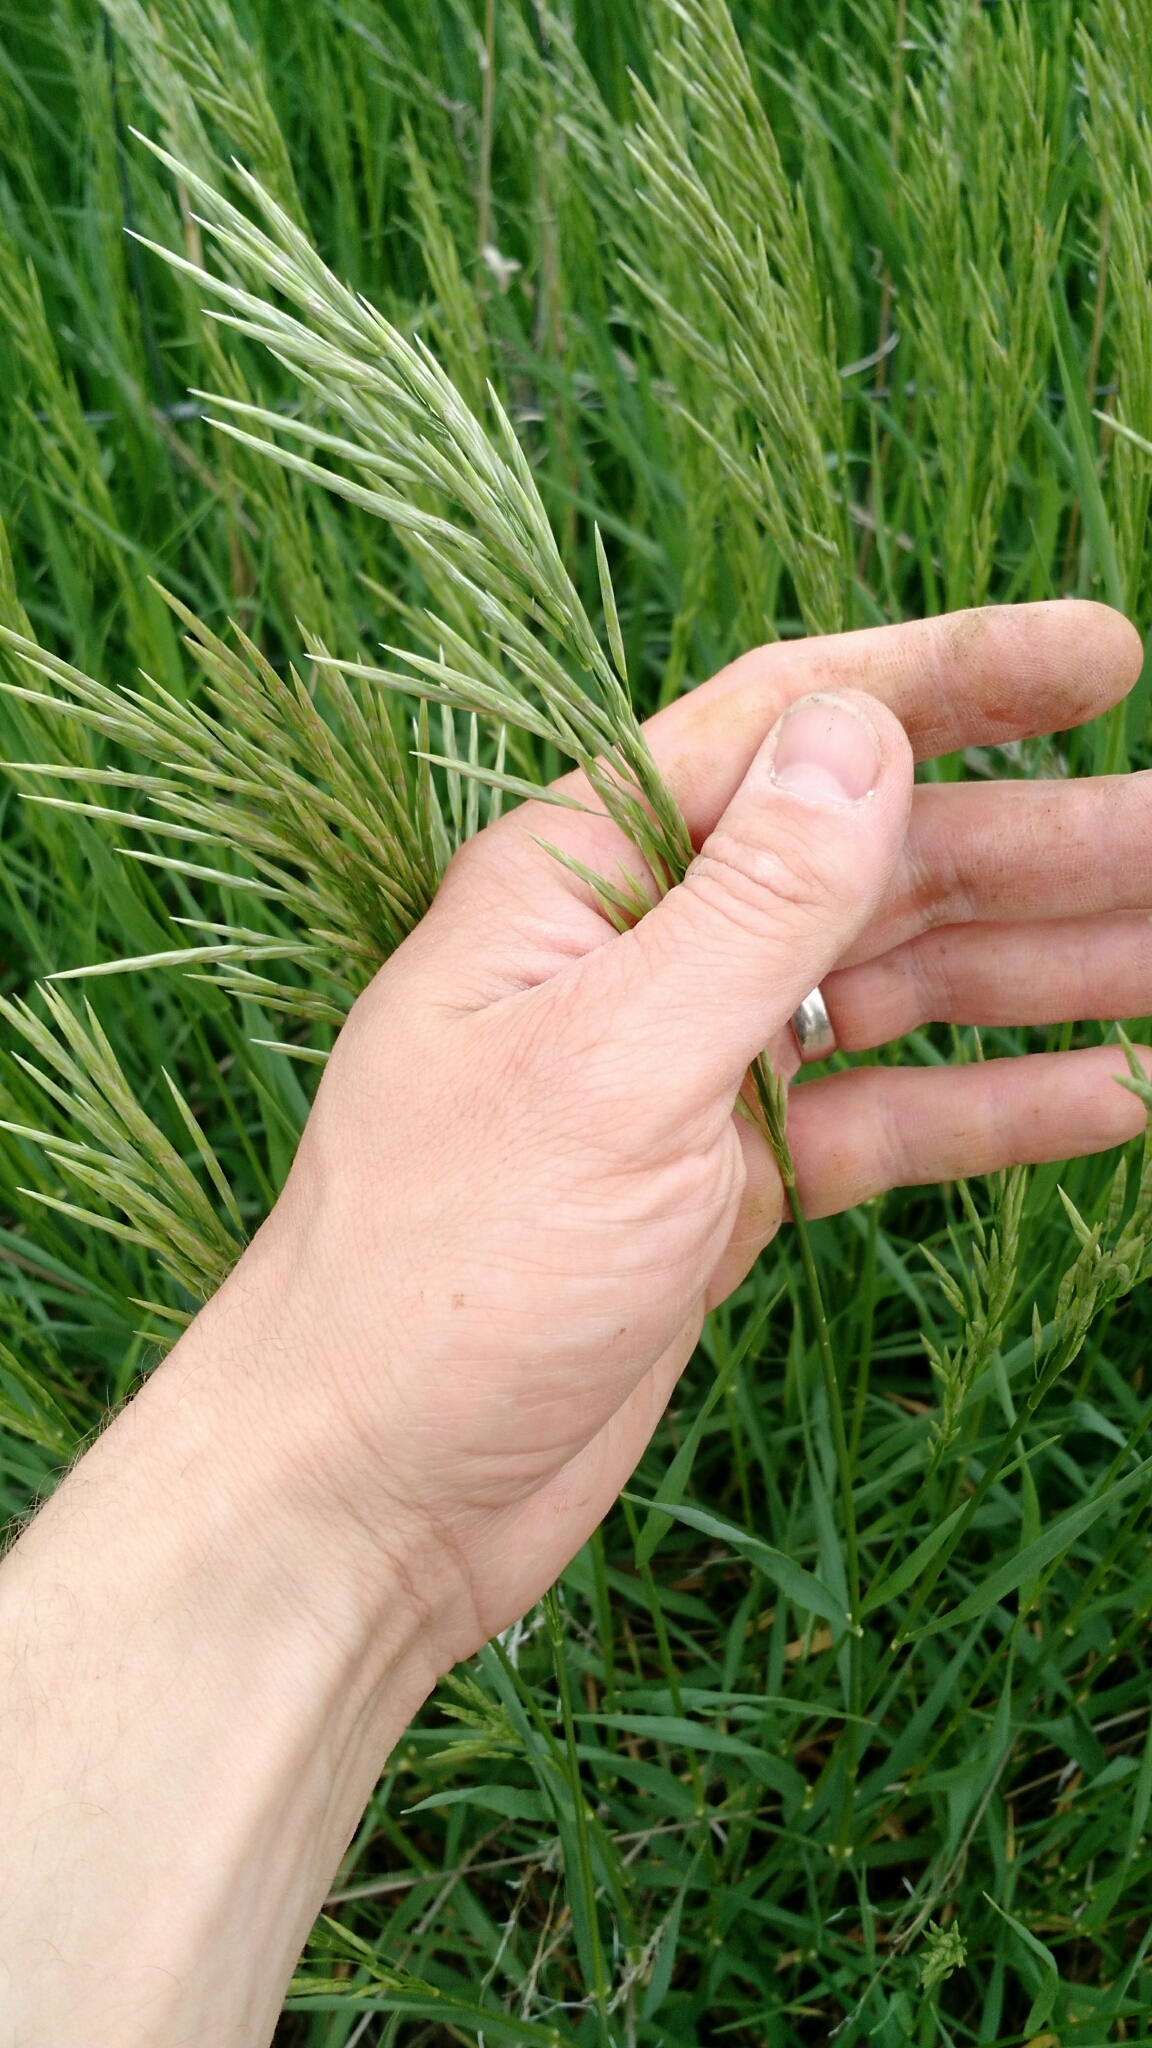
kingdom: Plantae
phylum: Tracheophyta
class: Liliopsida
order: Poales
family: Poaceae
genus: Bromus
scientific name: Bromus inermis
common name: Smooth brome
